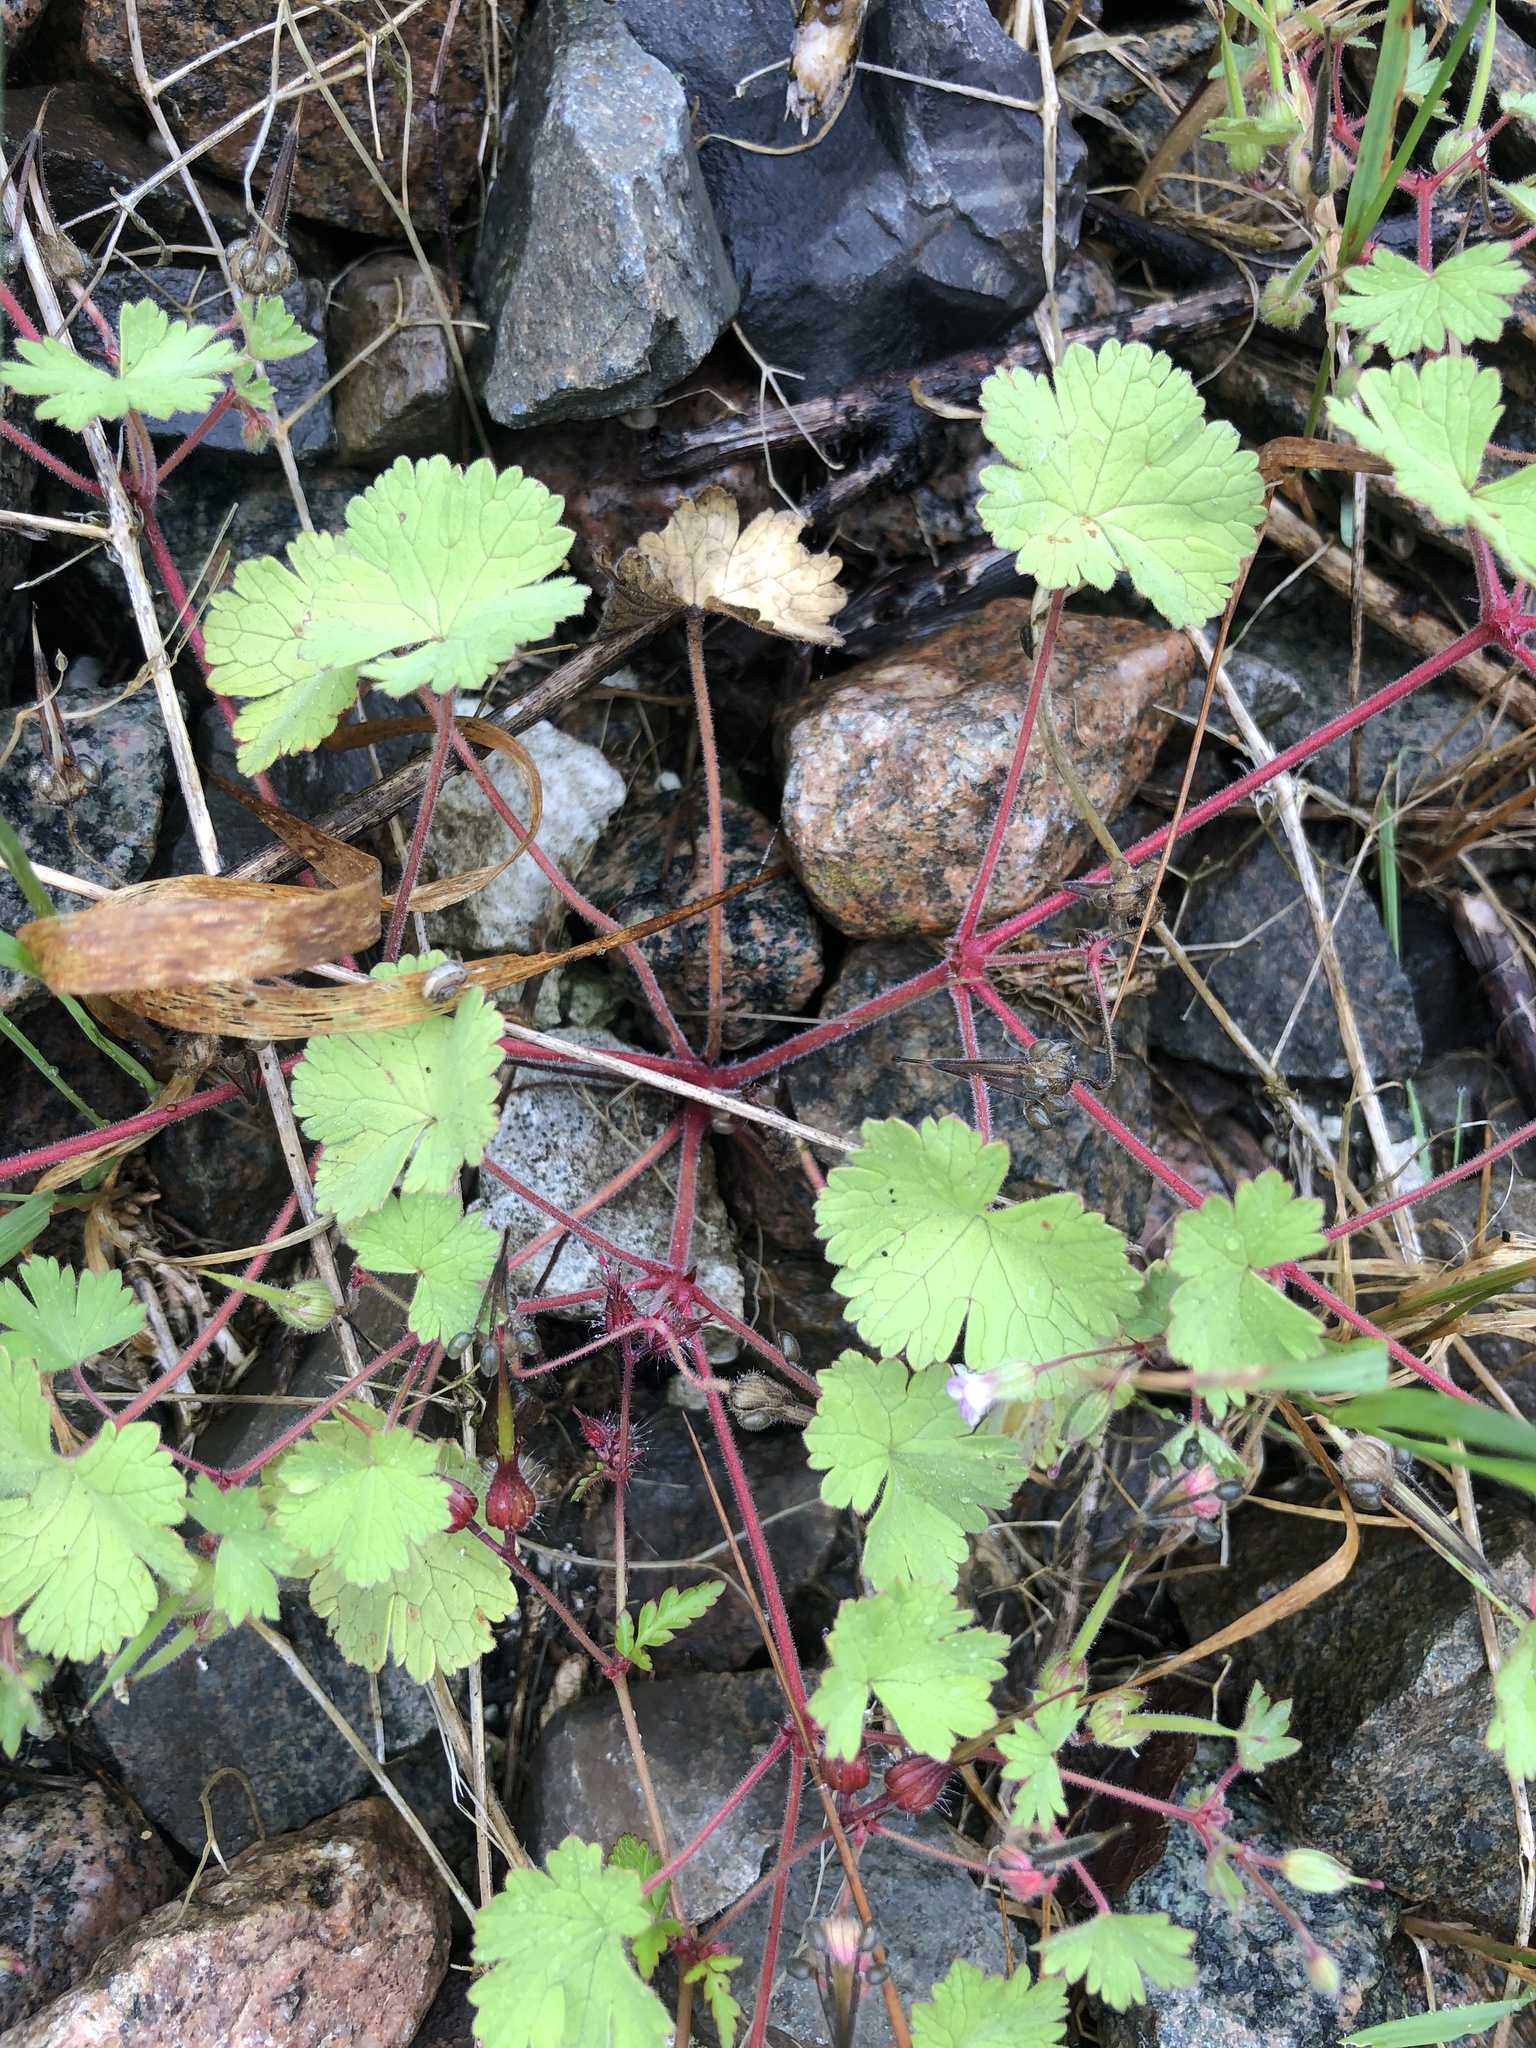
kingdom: Plantae
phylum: Tracheophyta
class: Magnoliopsida
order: Geraniales
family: Geraniaceae
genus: Geranium
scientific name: Geranium rotundifolium
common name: Round-leaved crane's-bill
